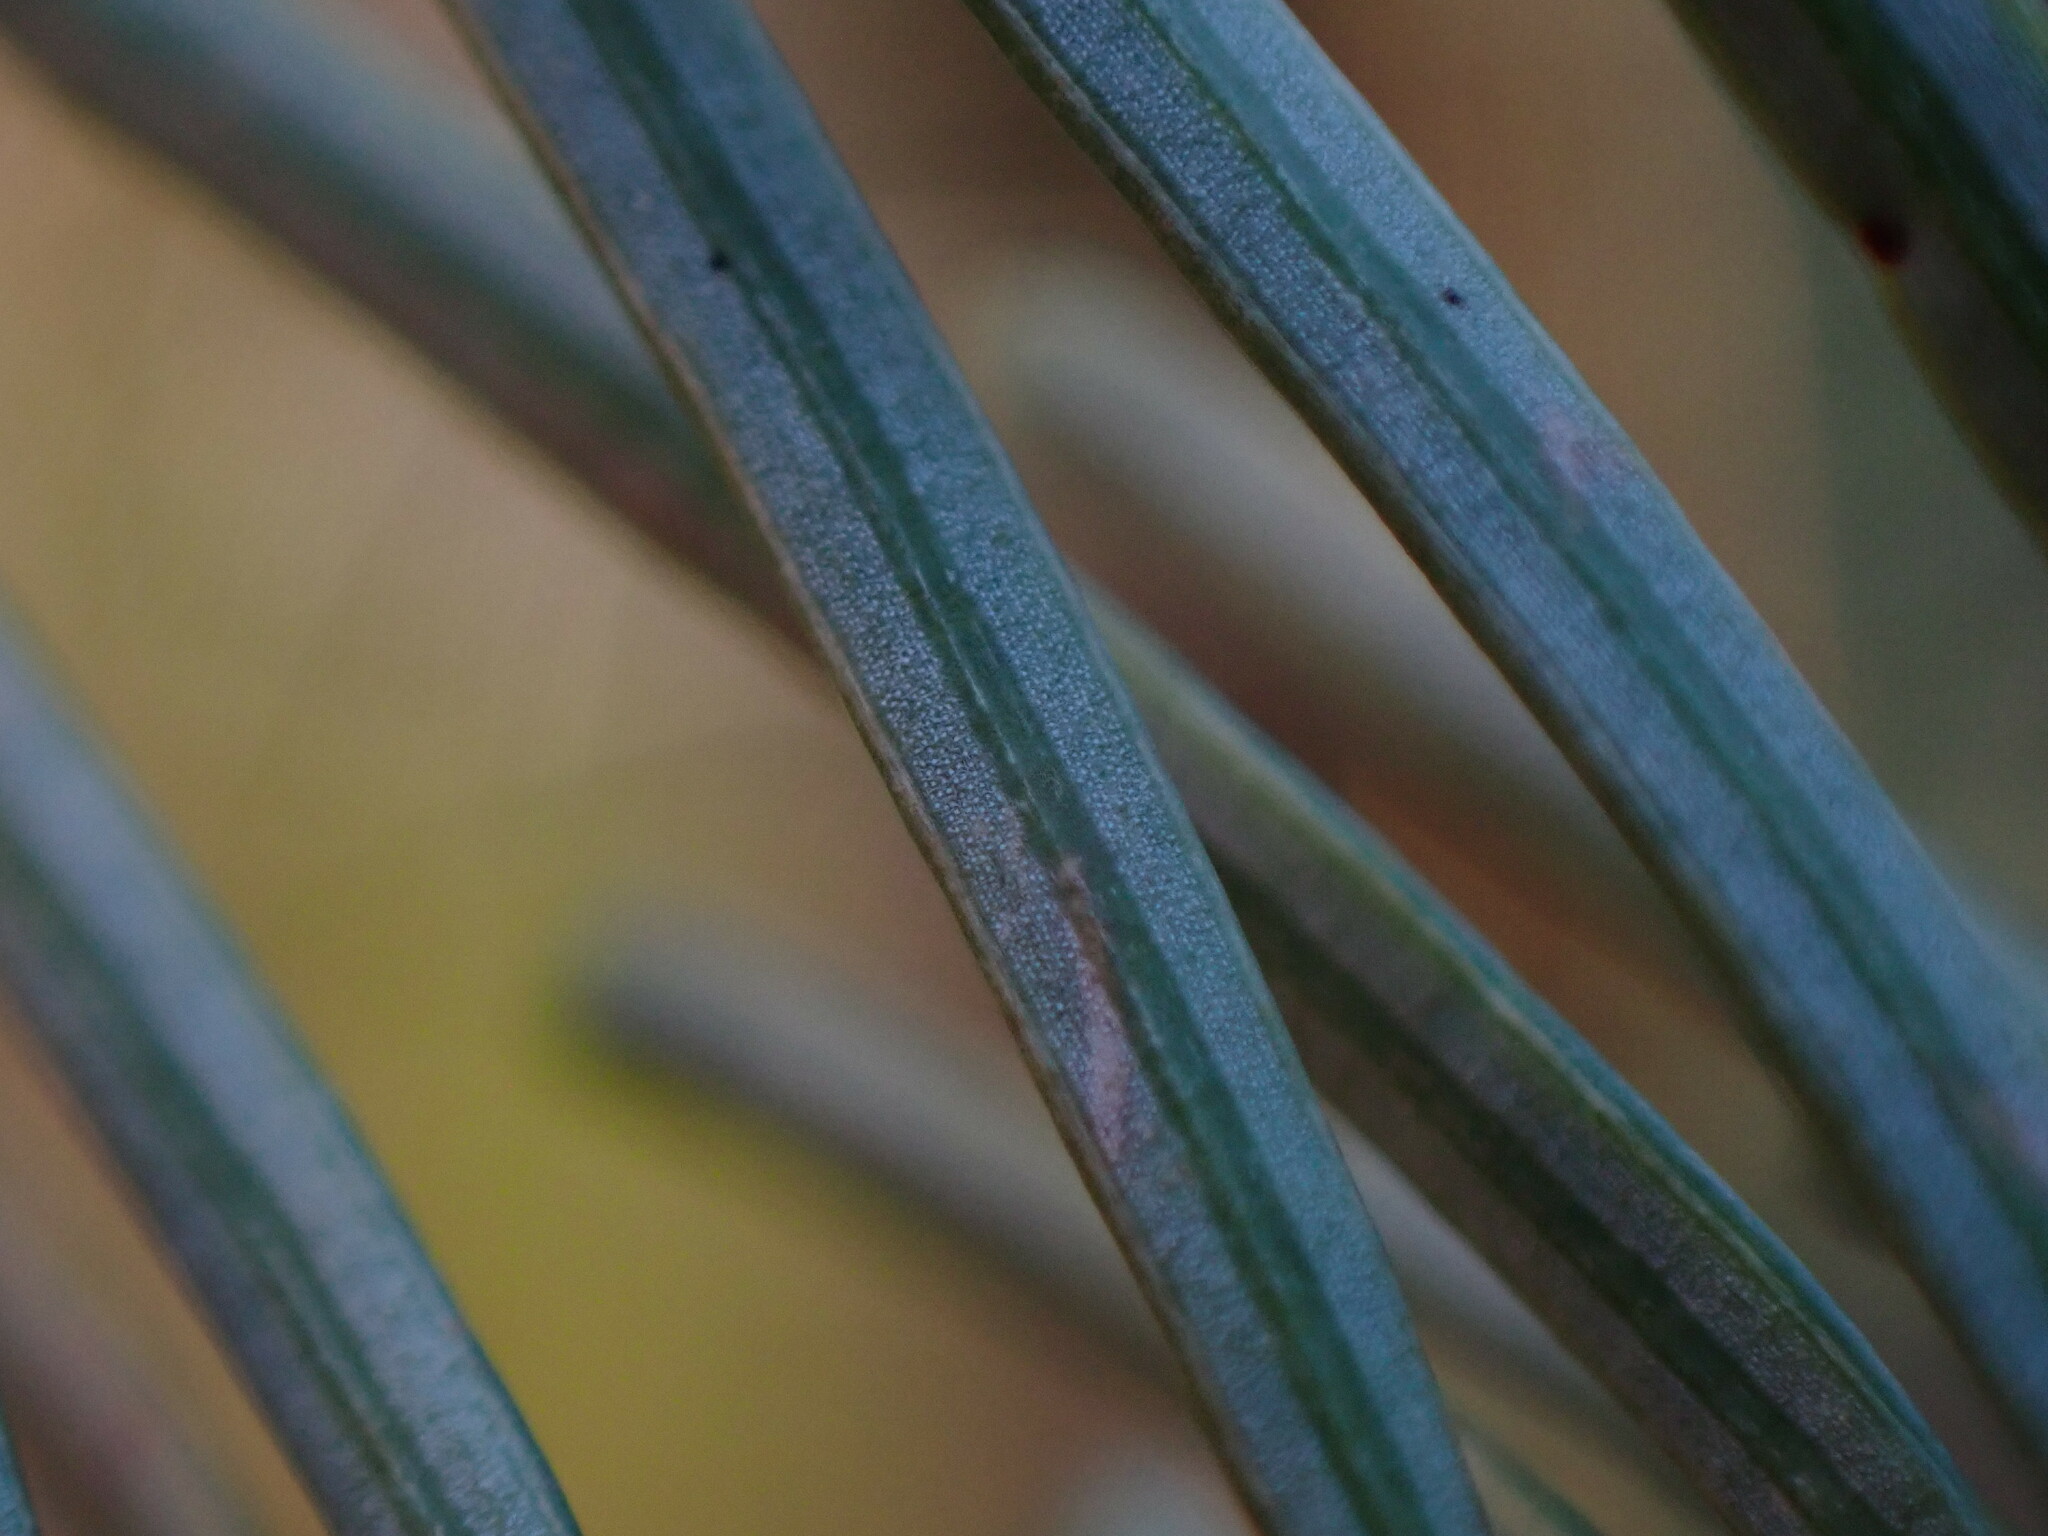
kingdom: Plantae
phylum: Tracheophyta
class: Pinopsida
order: Pinales
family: Pinaceae
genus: Abies
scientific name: Abies grandis
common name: Giant fir
